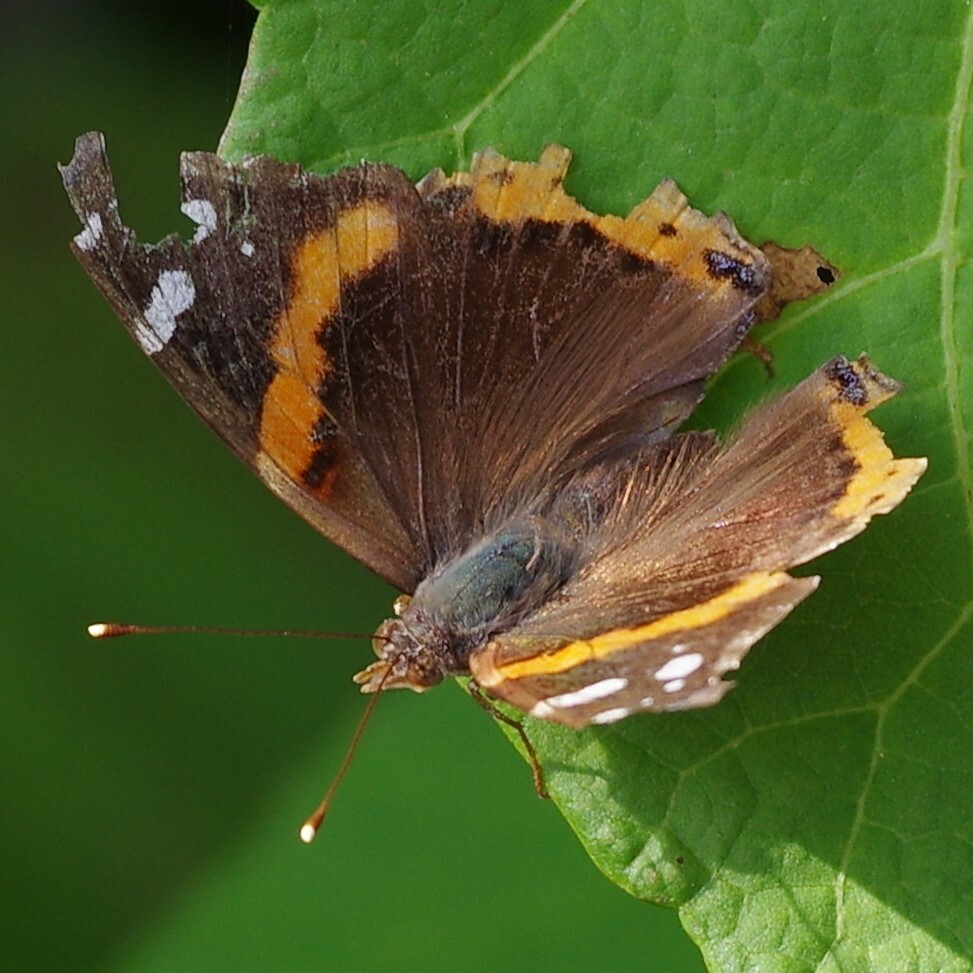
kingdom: Animalia
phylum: Arthropoda
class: Insecta
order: Lepidoptera
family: Nymphalidae
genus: Vanessa
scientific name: Vanessa atalanta
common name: Red admiral
